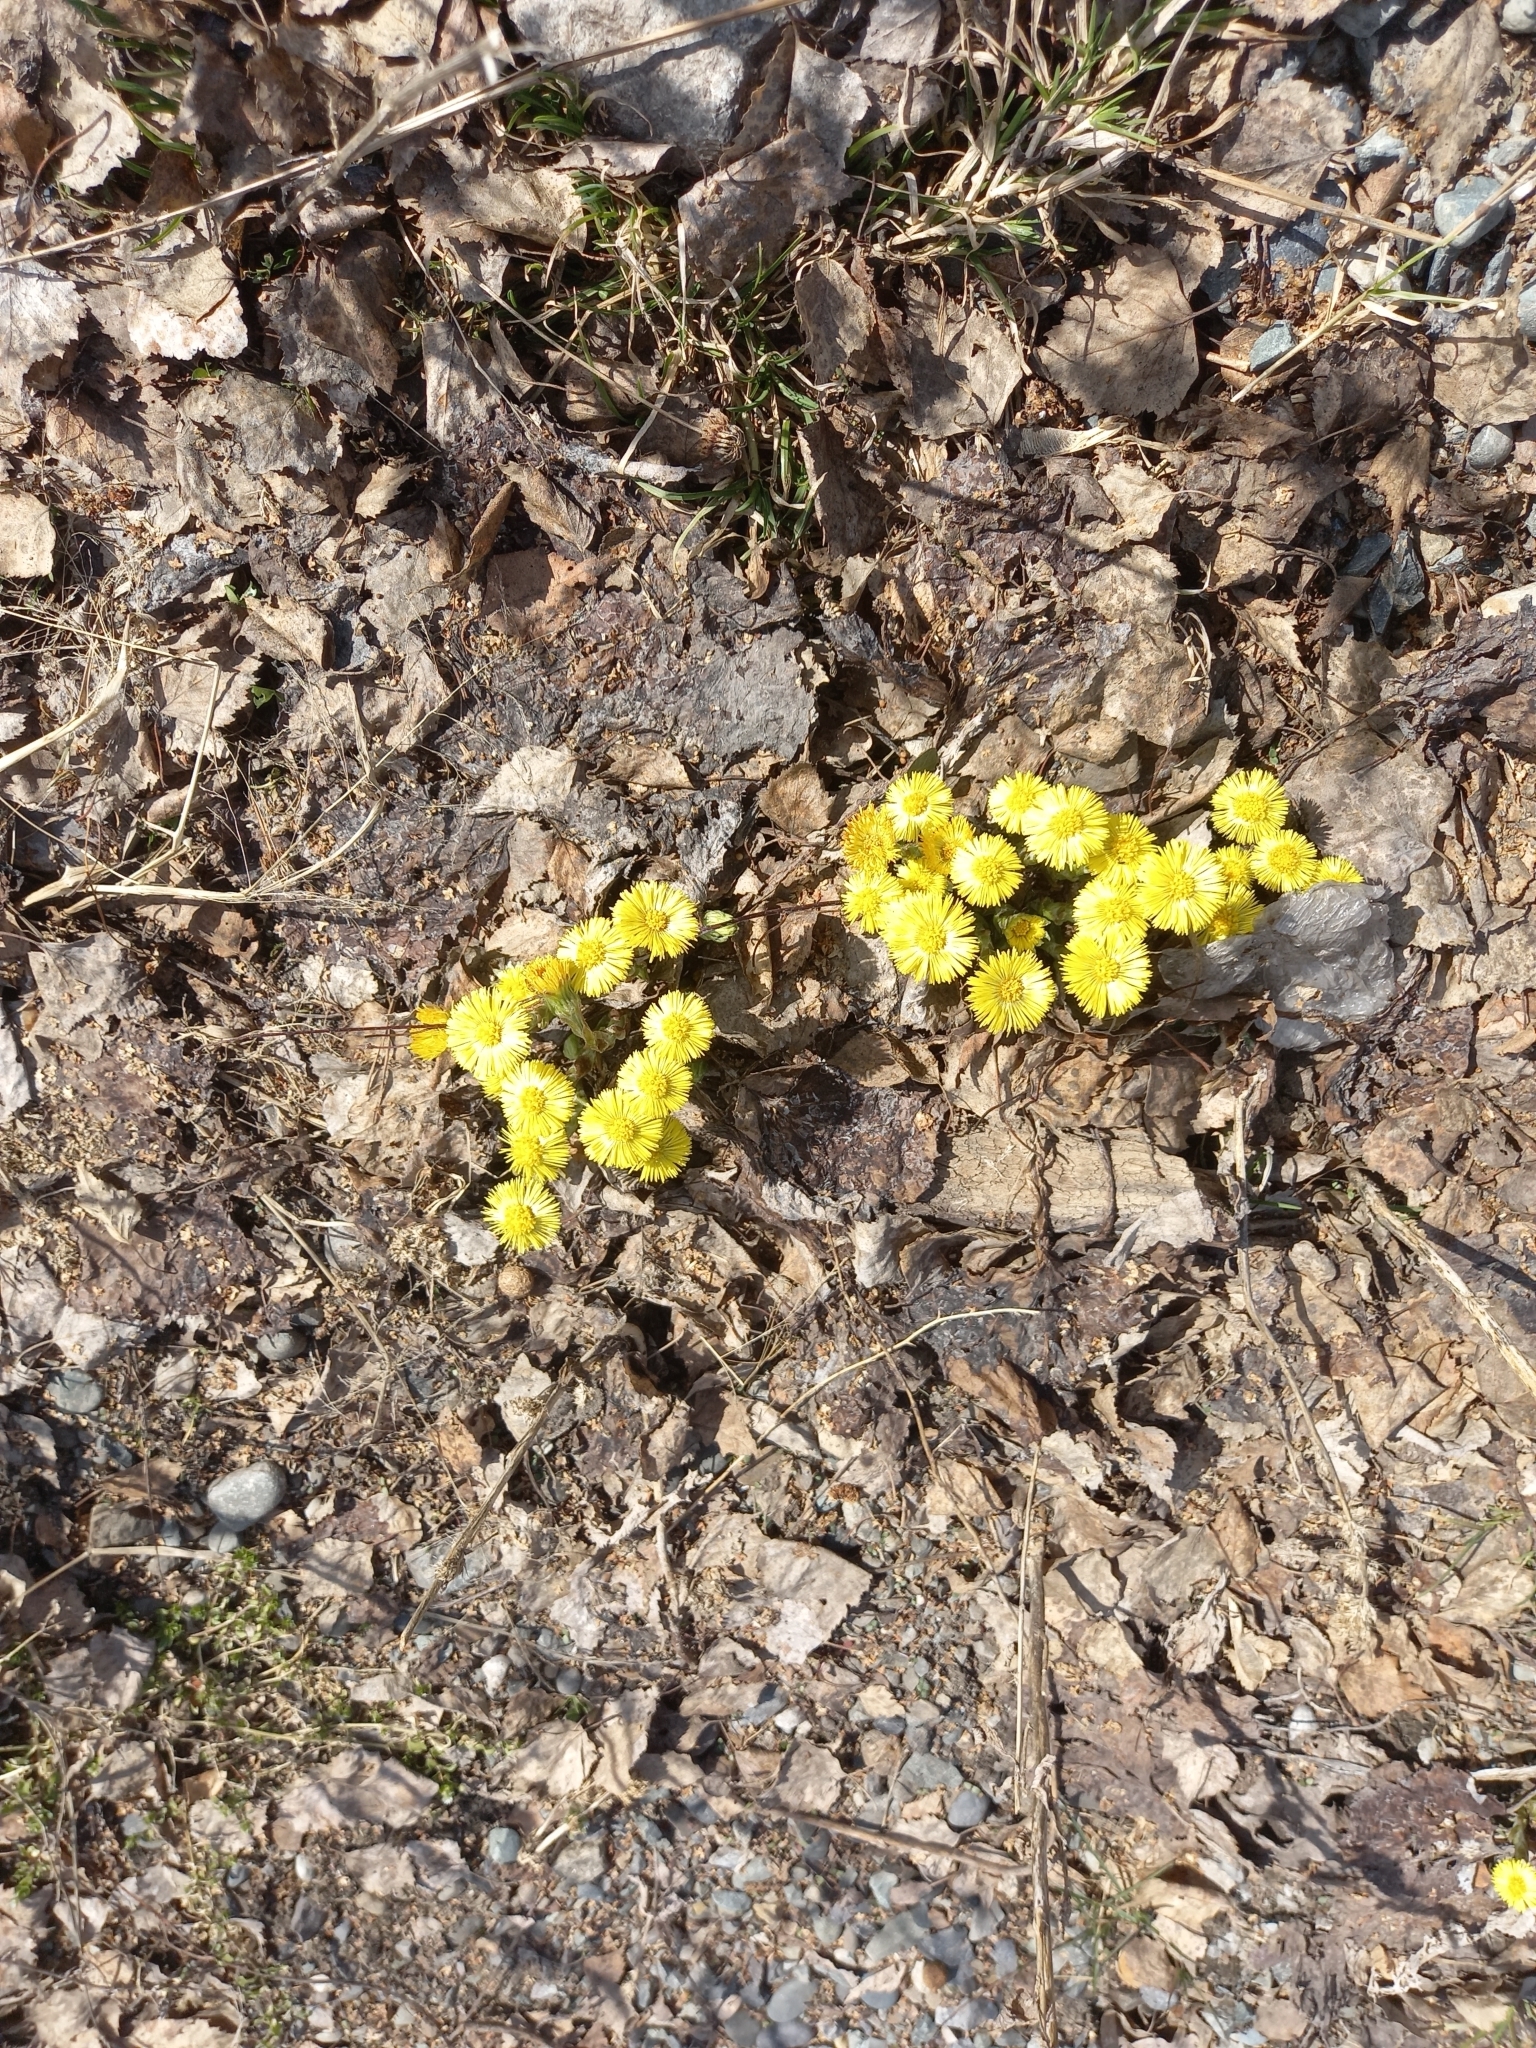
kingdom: Plantae
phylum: Tracheophyta
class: Magnoliopsida
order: Asterales
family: Asteraceae
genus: Tussilago
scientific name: Tussilago farfara
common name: Coltsfoot
